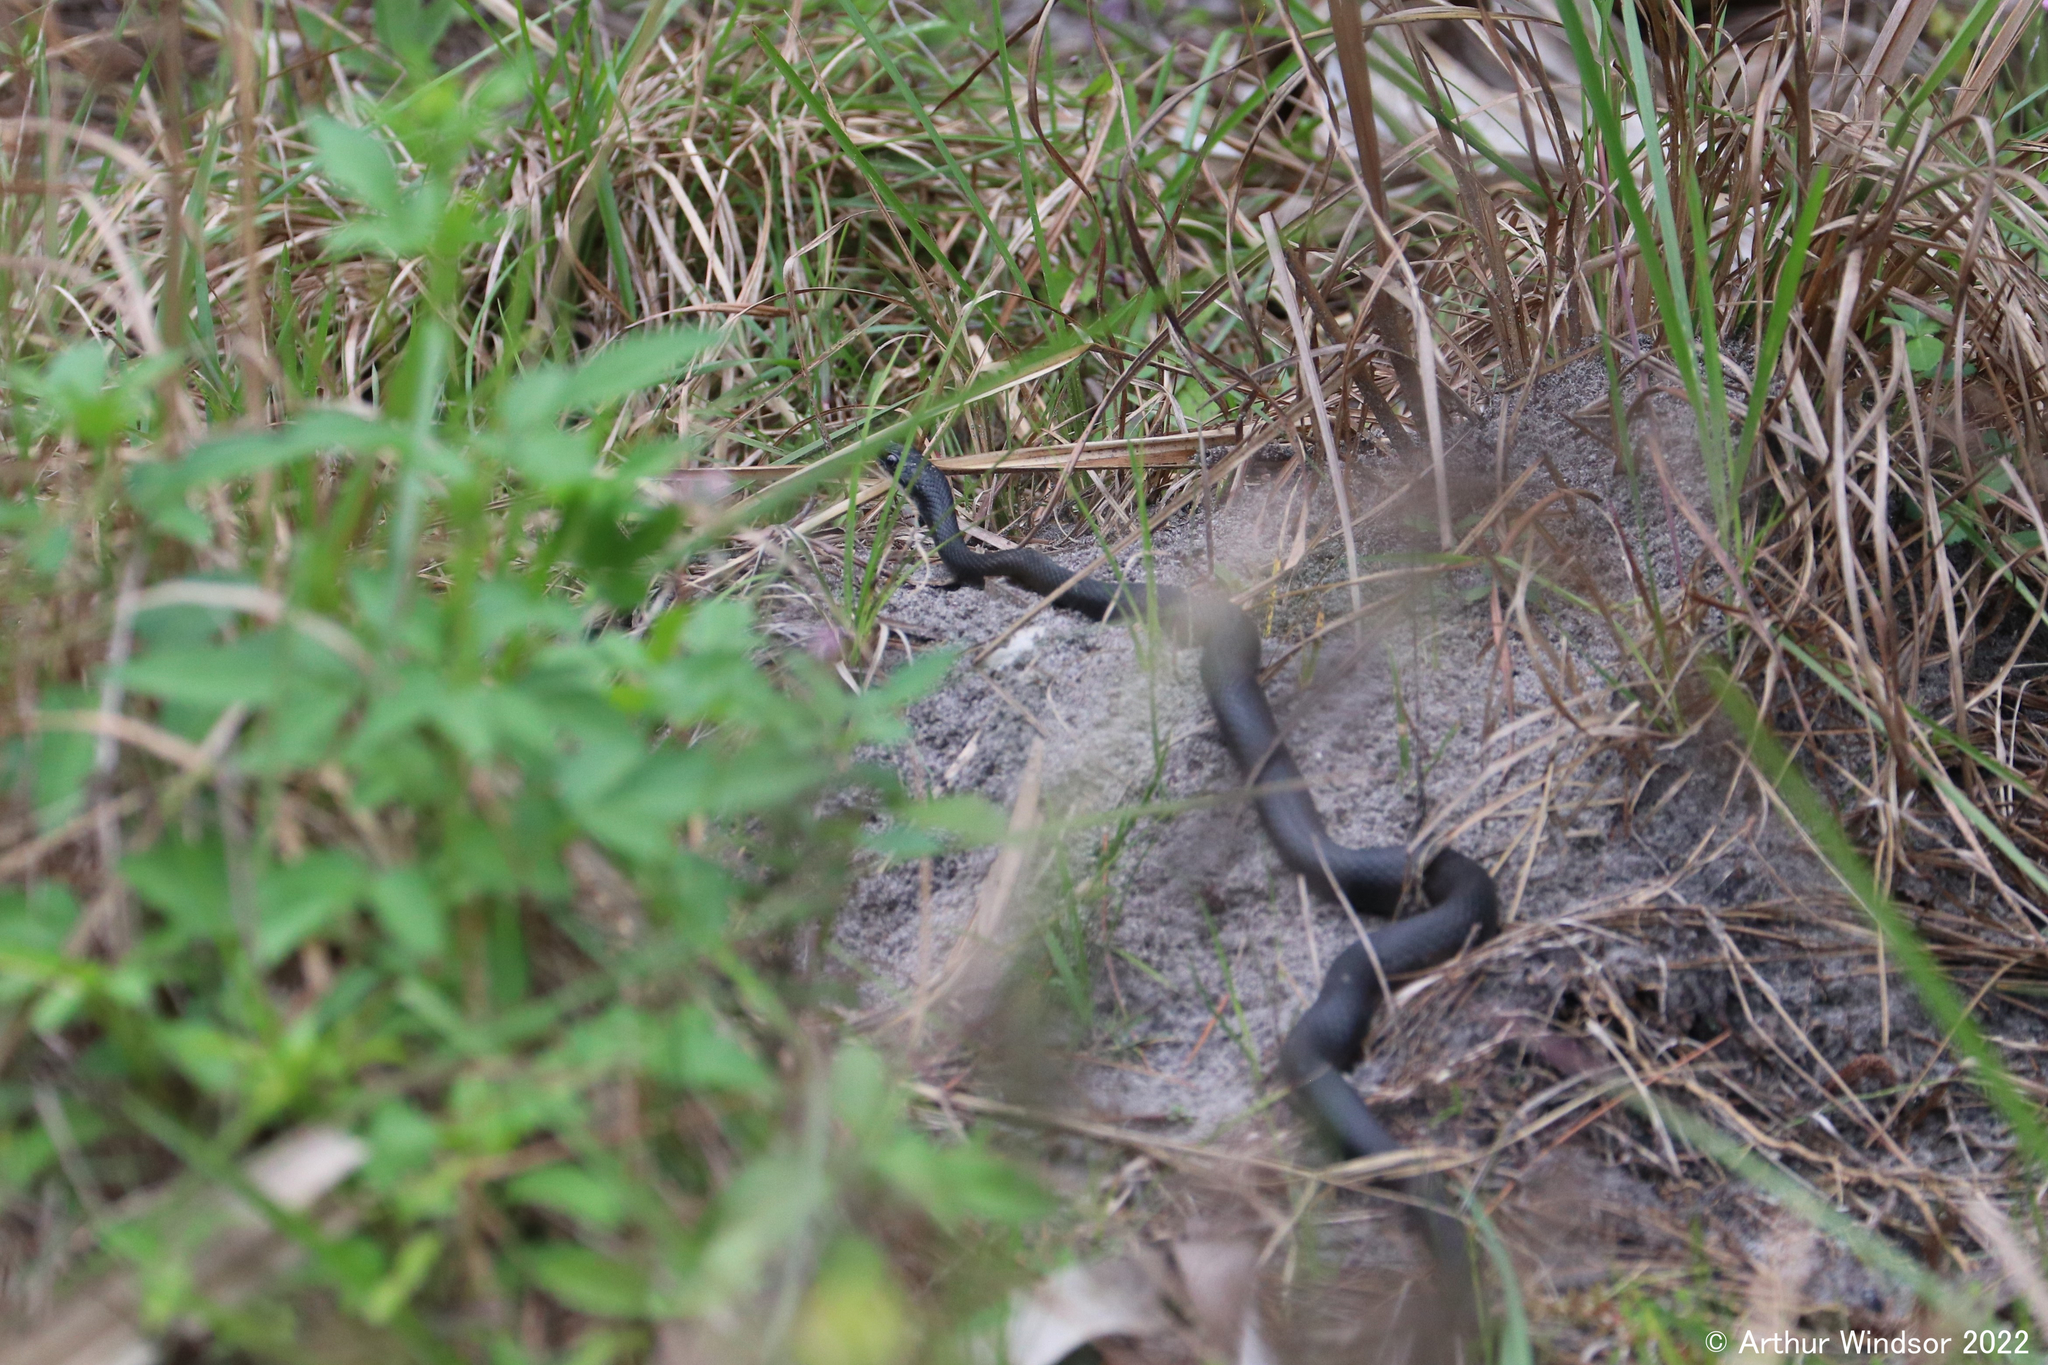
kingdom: Animalia
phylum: Chordata
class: Squamata
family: Colubridae
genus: Coluber
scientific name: Coluber constrictor
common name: Eastern racer
